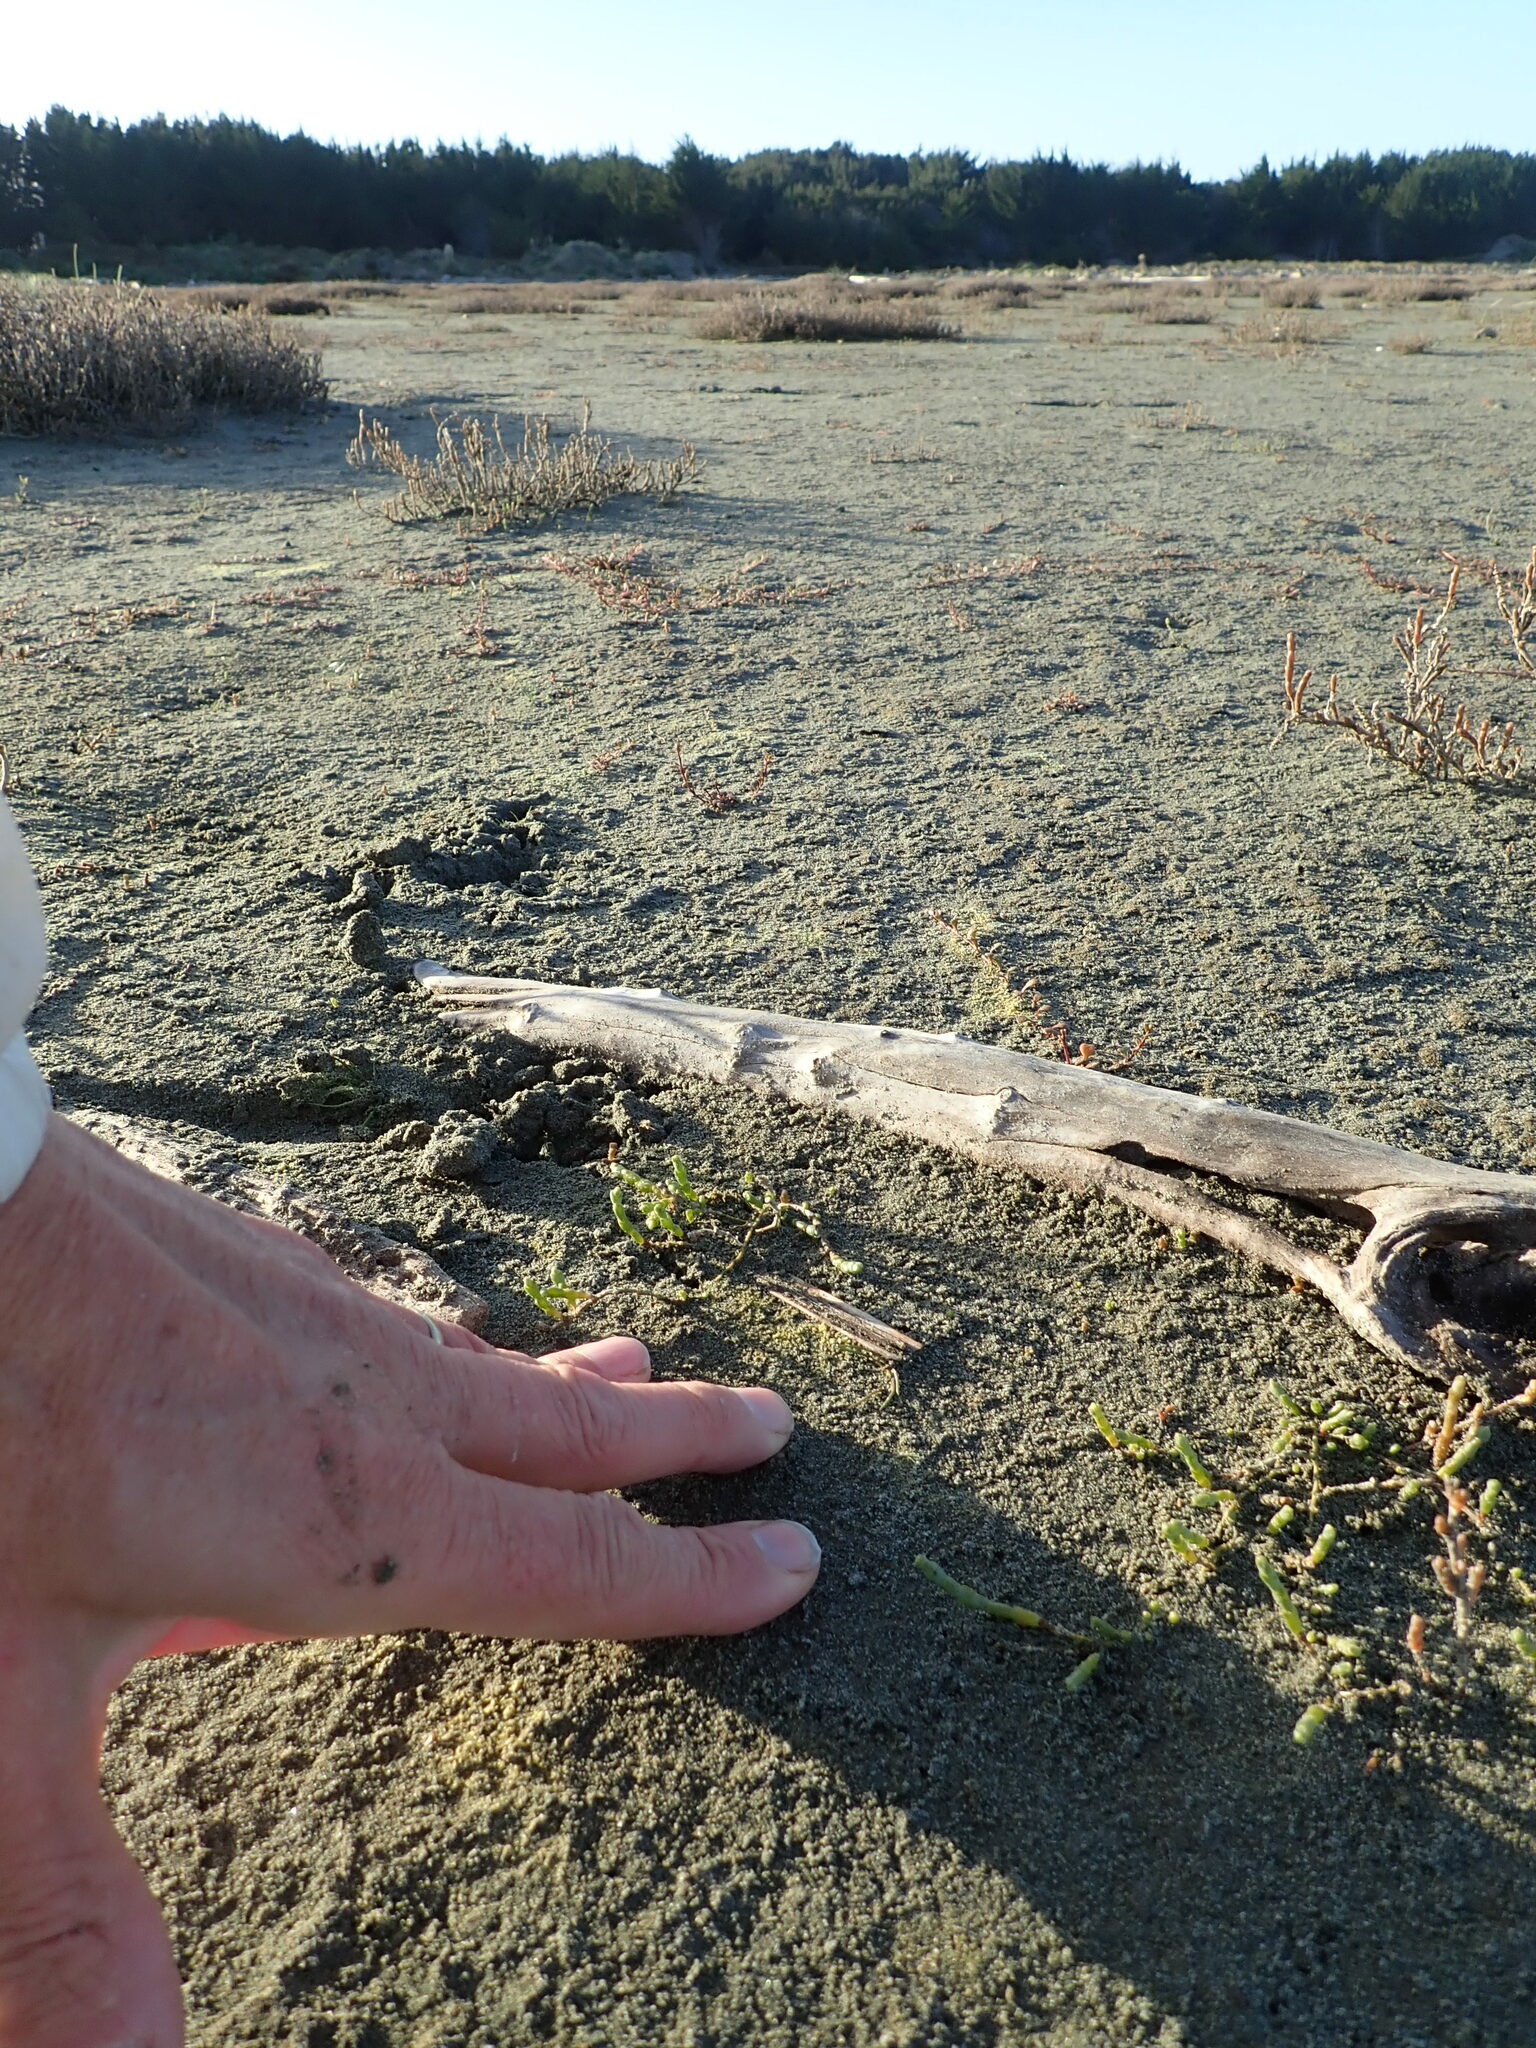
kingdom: Plantae
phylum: Tracheophyta
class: Magnoliopsida
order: Caryophyllales
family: Amaranthaceae
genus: Salicornia
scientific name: Salicornia quinqueflora
